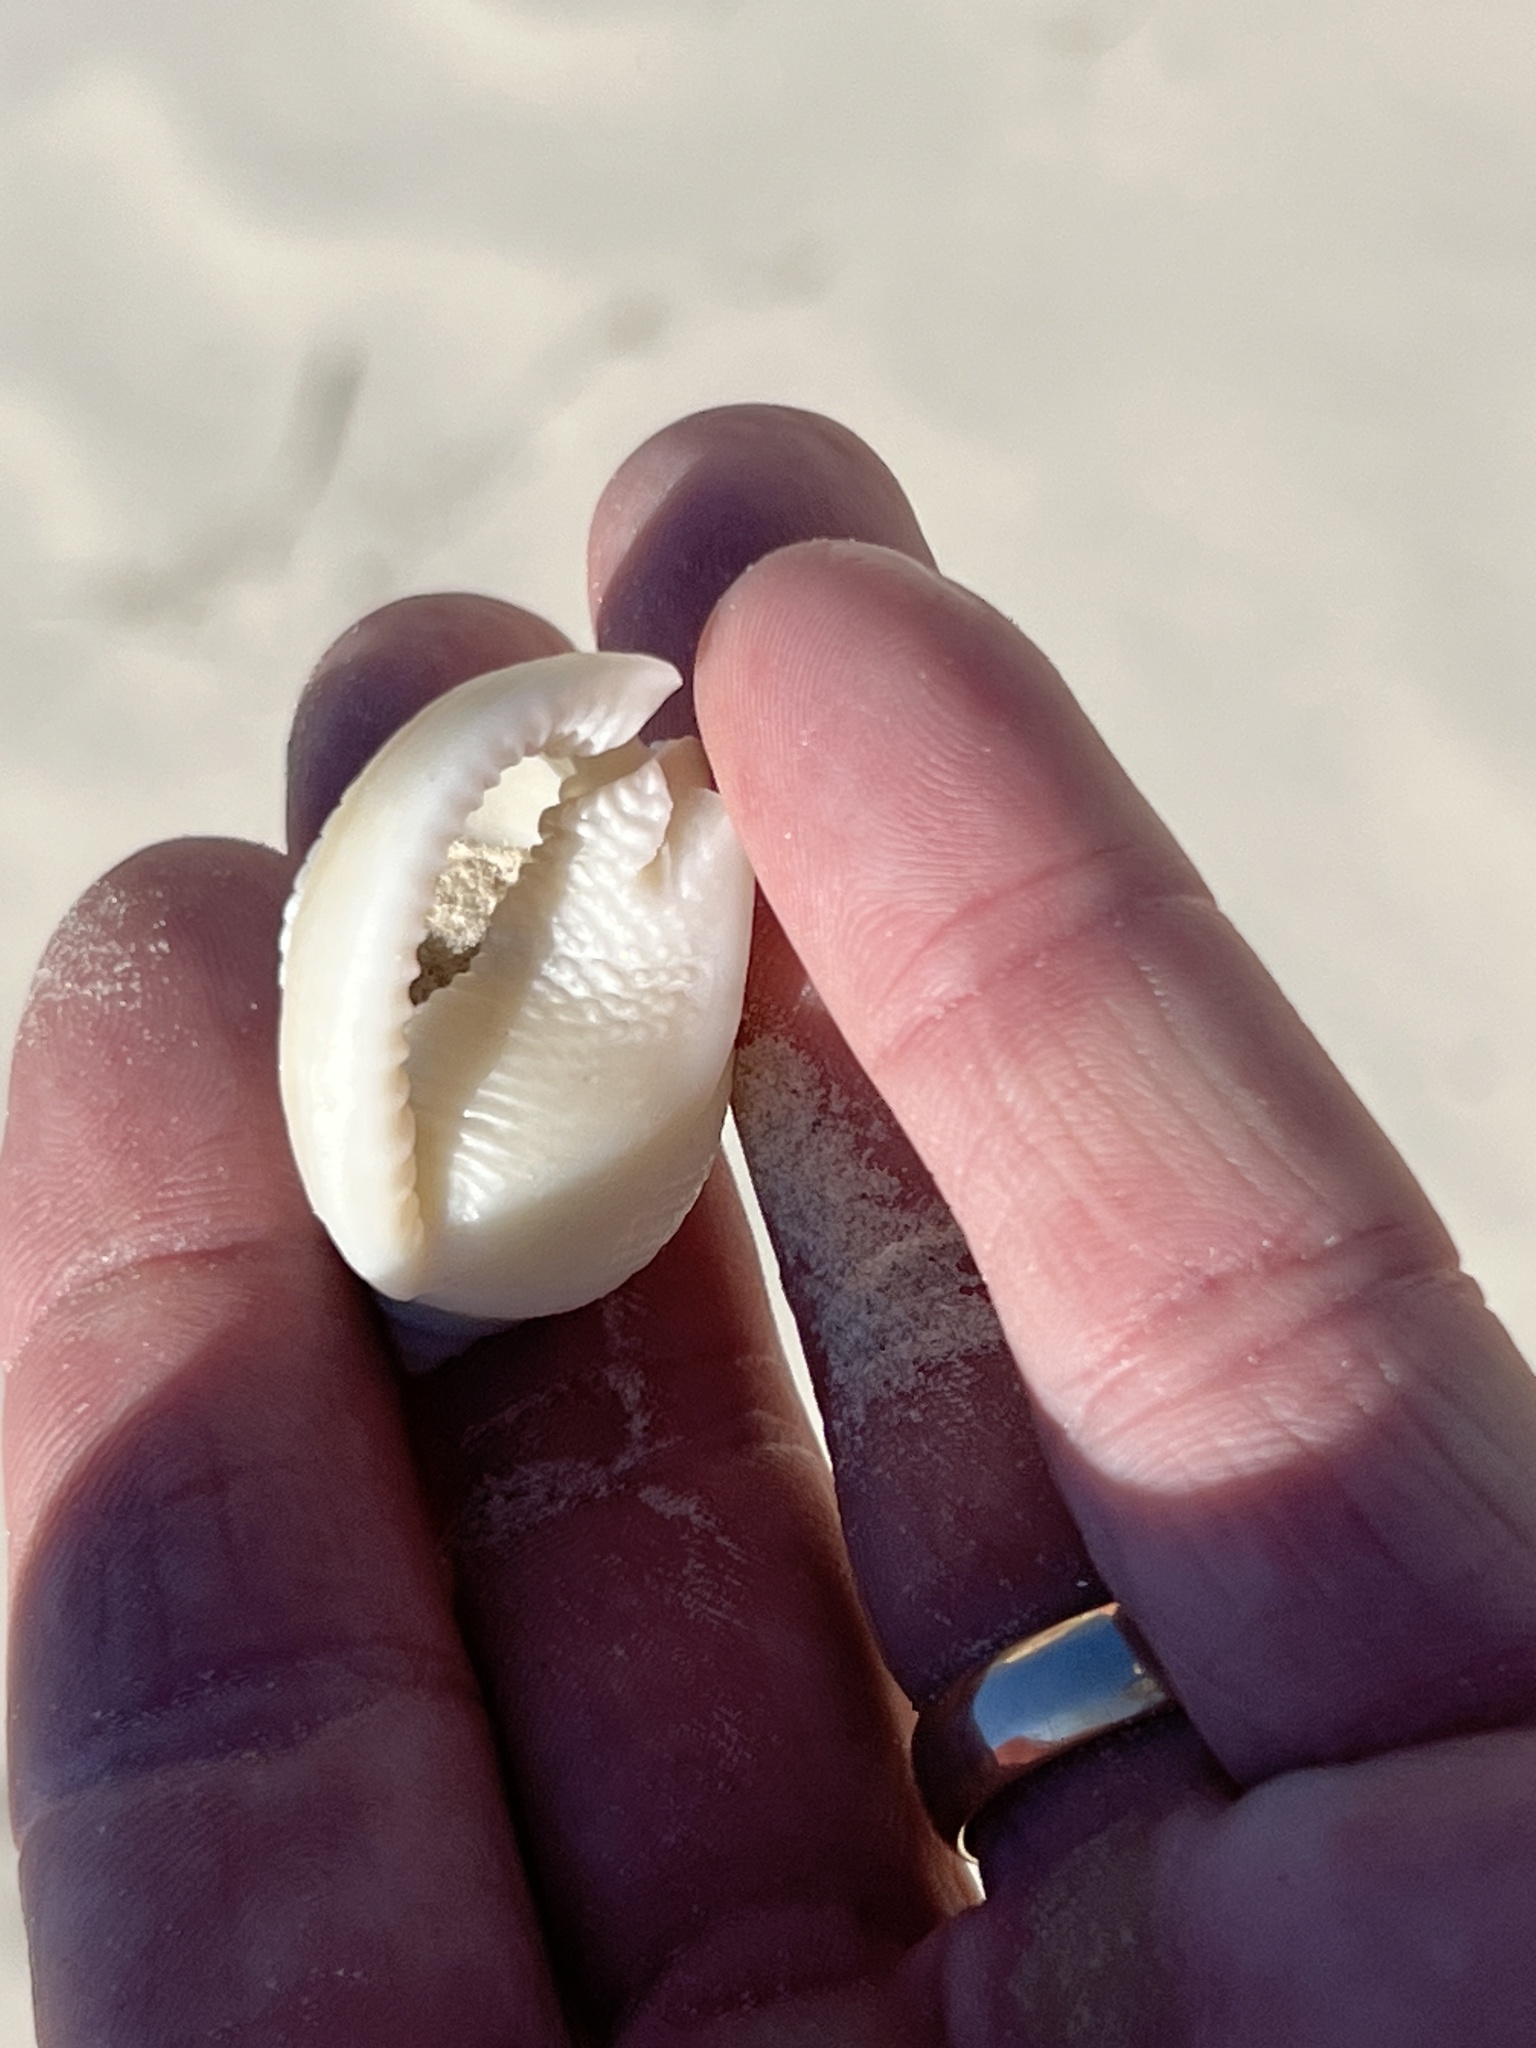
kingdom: Animalia
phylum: Mollusca
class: Gastropoda
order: Littorinimorpha
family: Cassidae
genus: Semicassis
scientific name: Semicassis granulata
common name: Scotch bonnet
